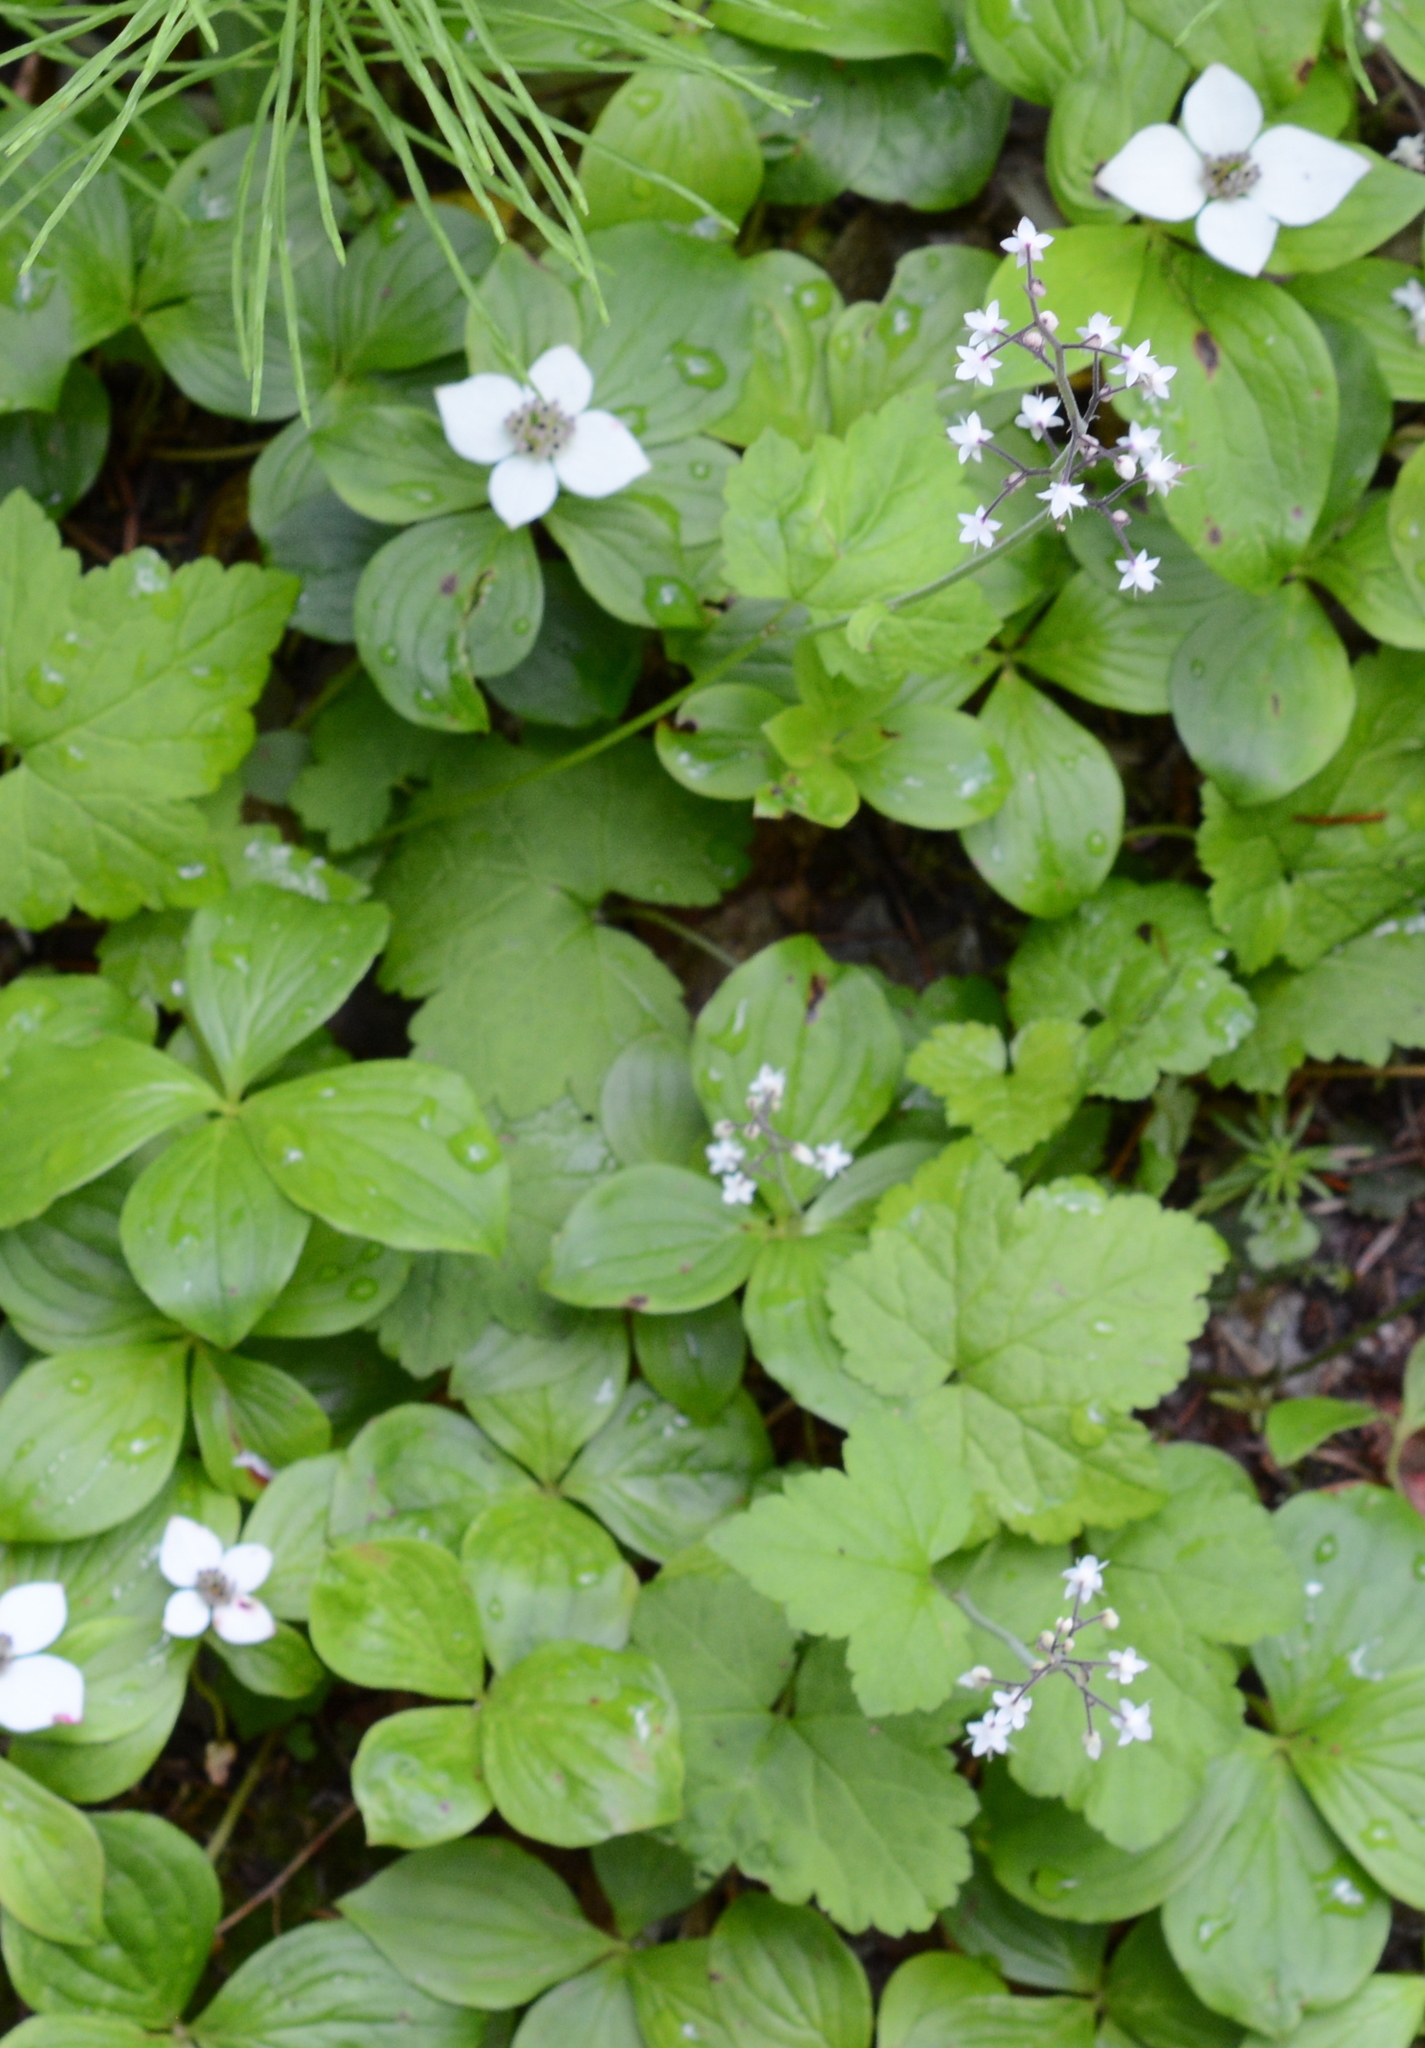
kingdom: Plantae
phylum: Tracheophyta
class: Magnoliopsida
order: Saxifragales
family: Saxifragaceae
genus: Tiarella
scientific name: Tiarella trifoliata
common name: Sugar-scoop
